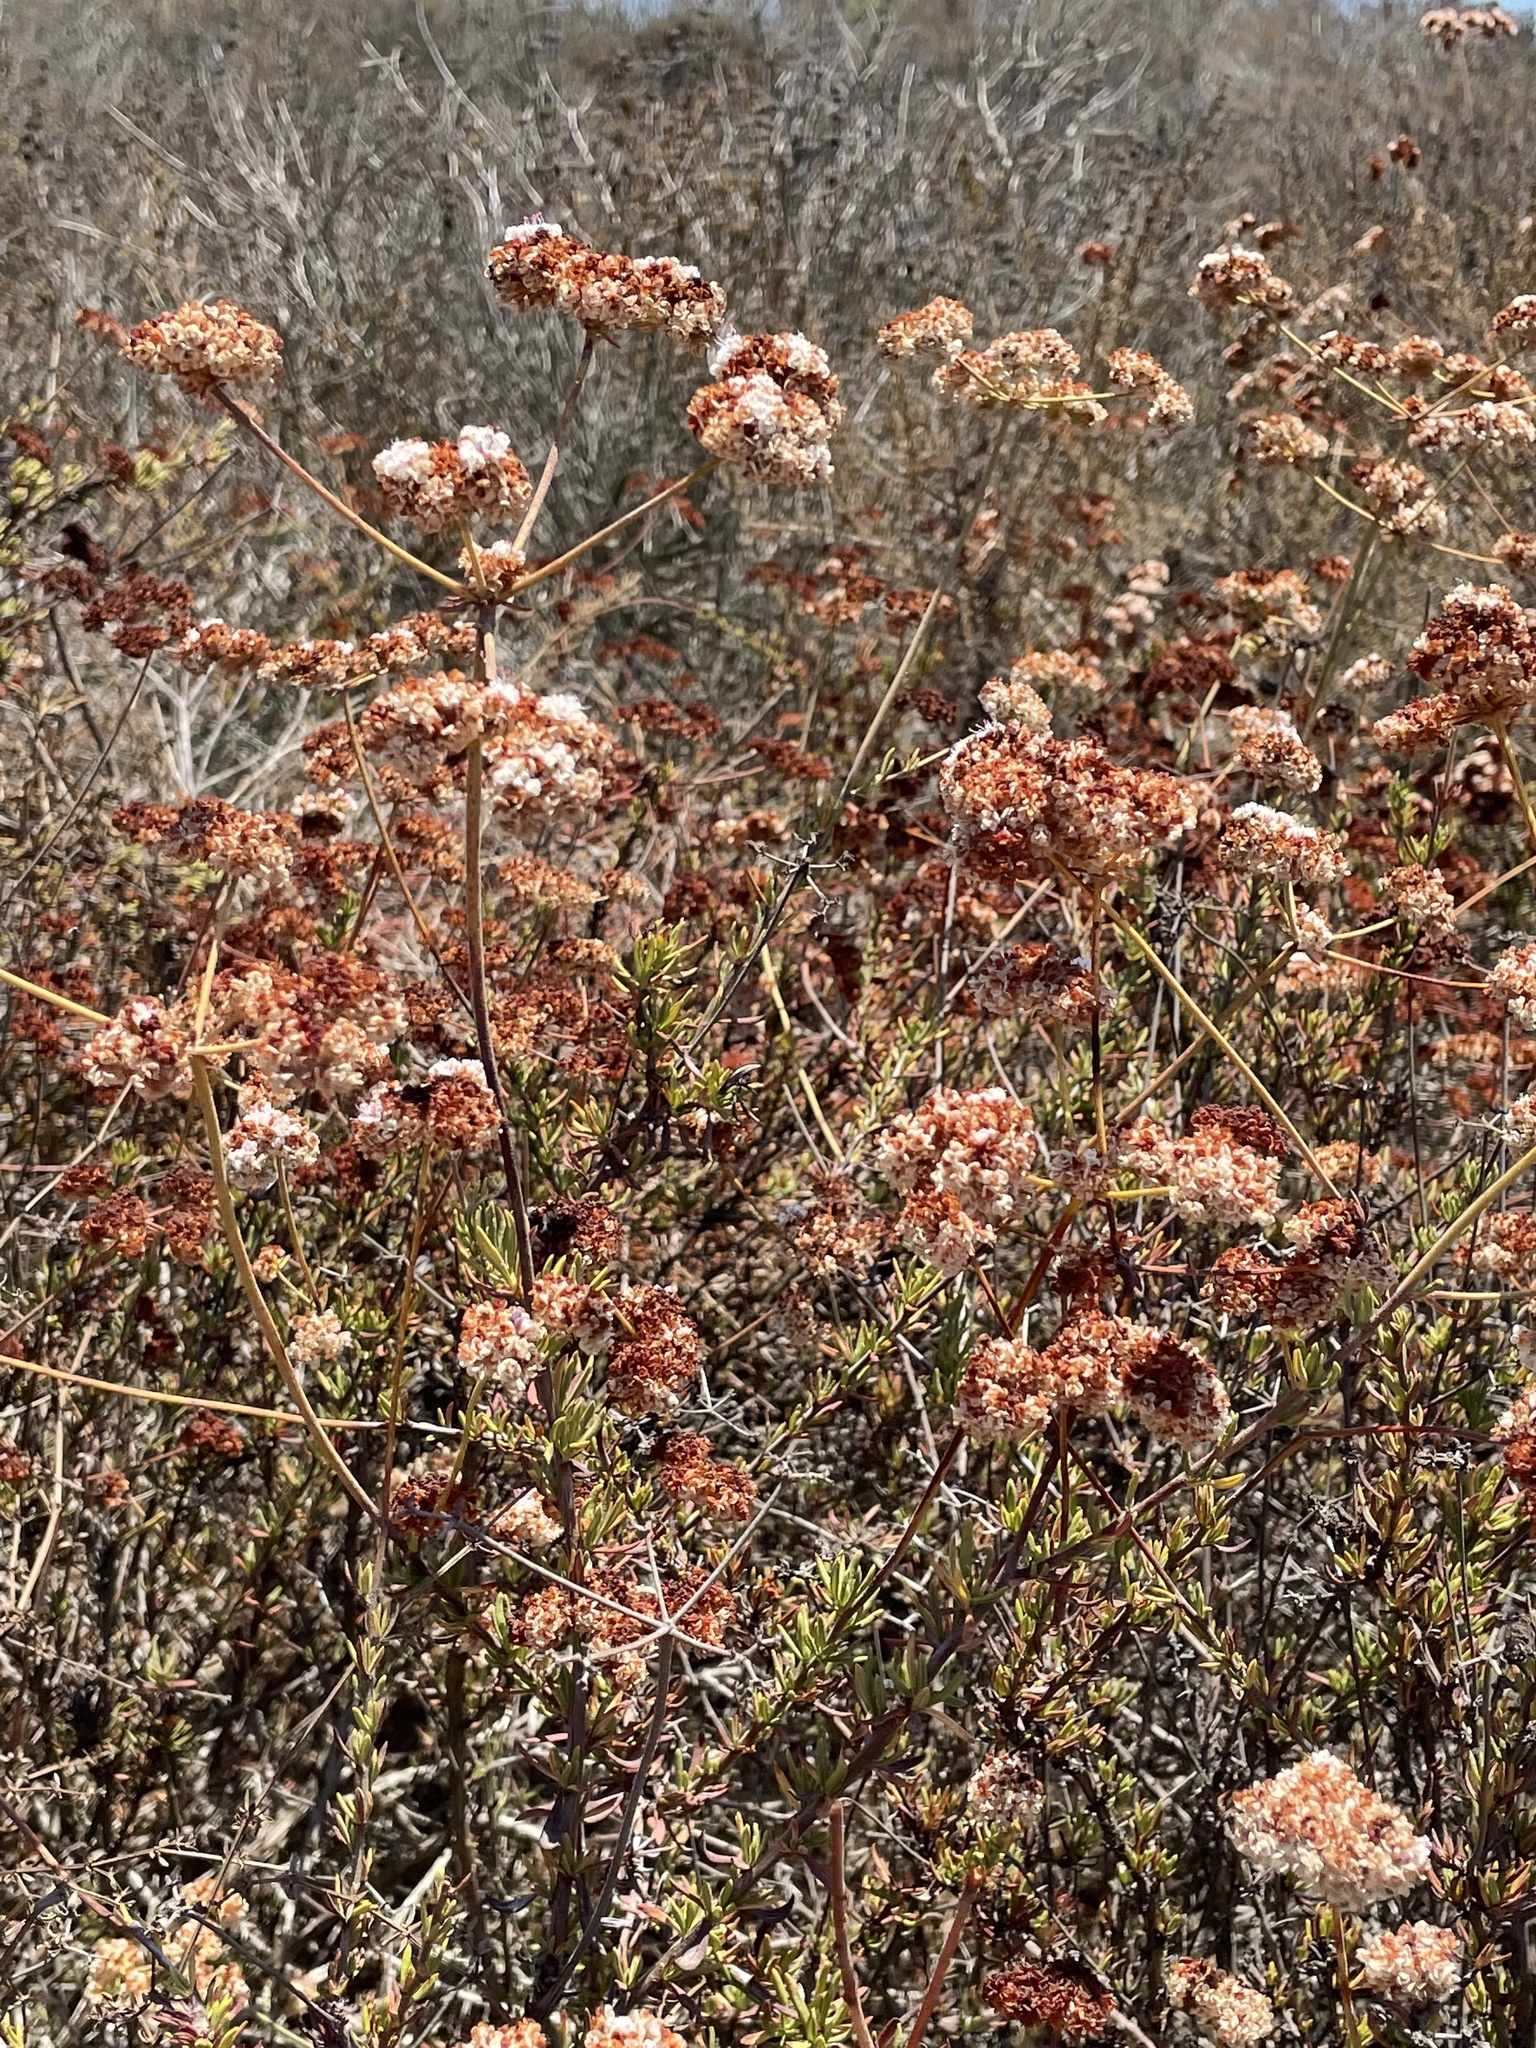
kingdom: Plantae
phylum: Tracheophyta
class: Magnoliopsida
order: Caryophyllales
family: Polygonaceae
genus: Eriogonum
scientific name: Eriogonum fasciculatum
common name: California wild buckwheat
